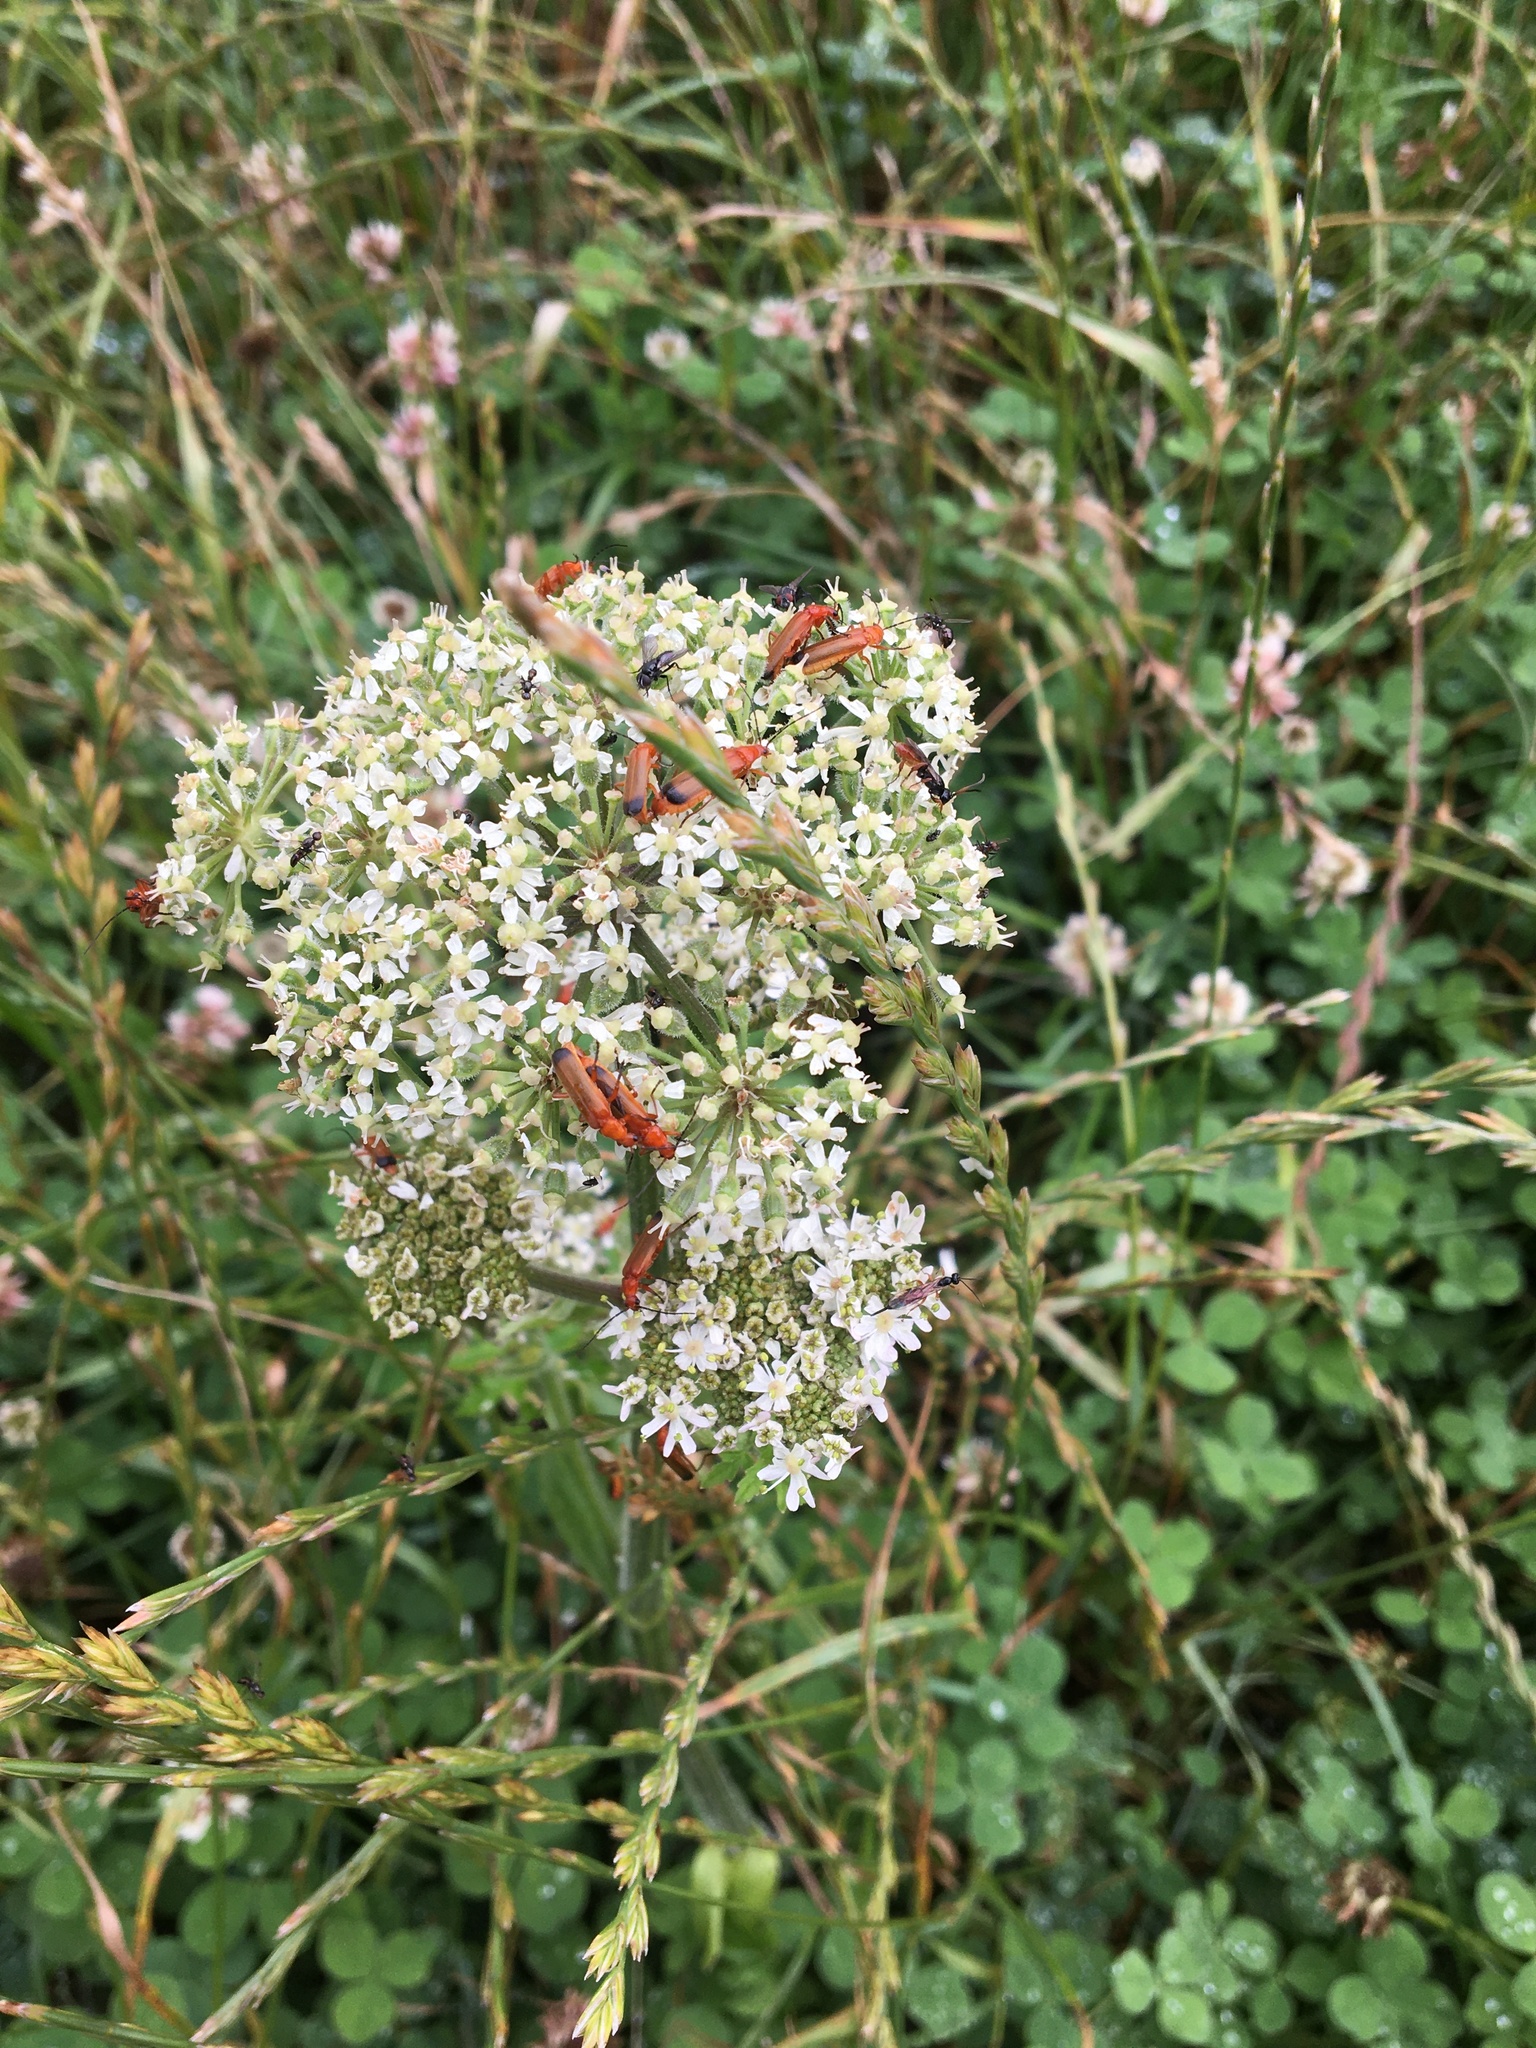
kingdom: Animalia
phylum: Arthropoda
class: Insecta
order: Coleoptera
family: Cantharidae
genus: Rhagonycha
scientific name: Rhagonycha fulva
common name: Common red soldier beetle
